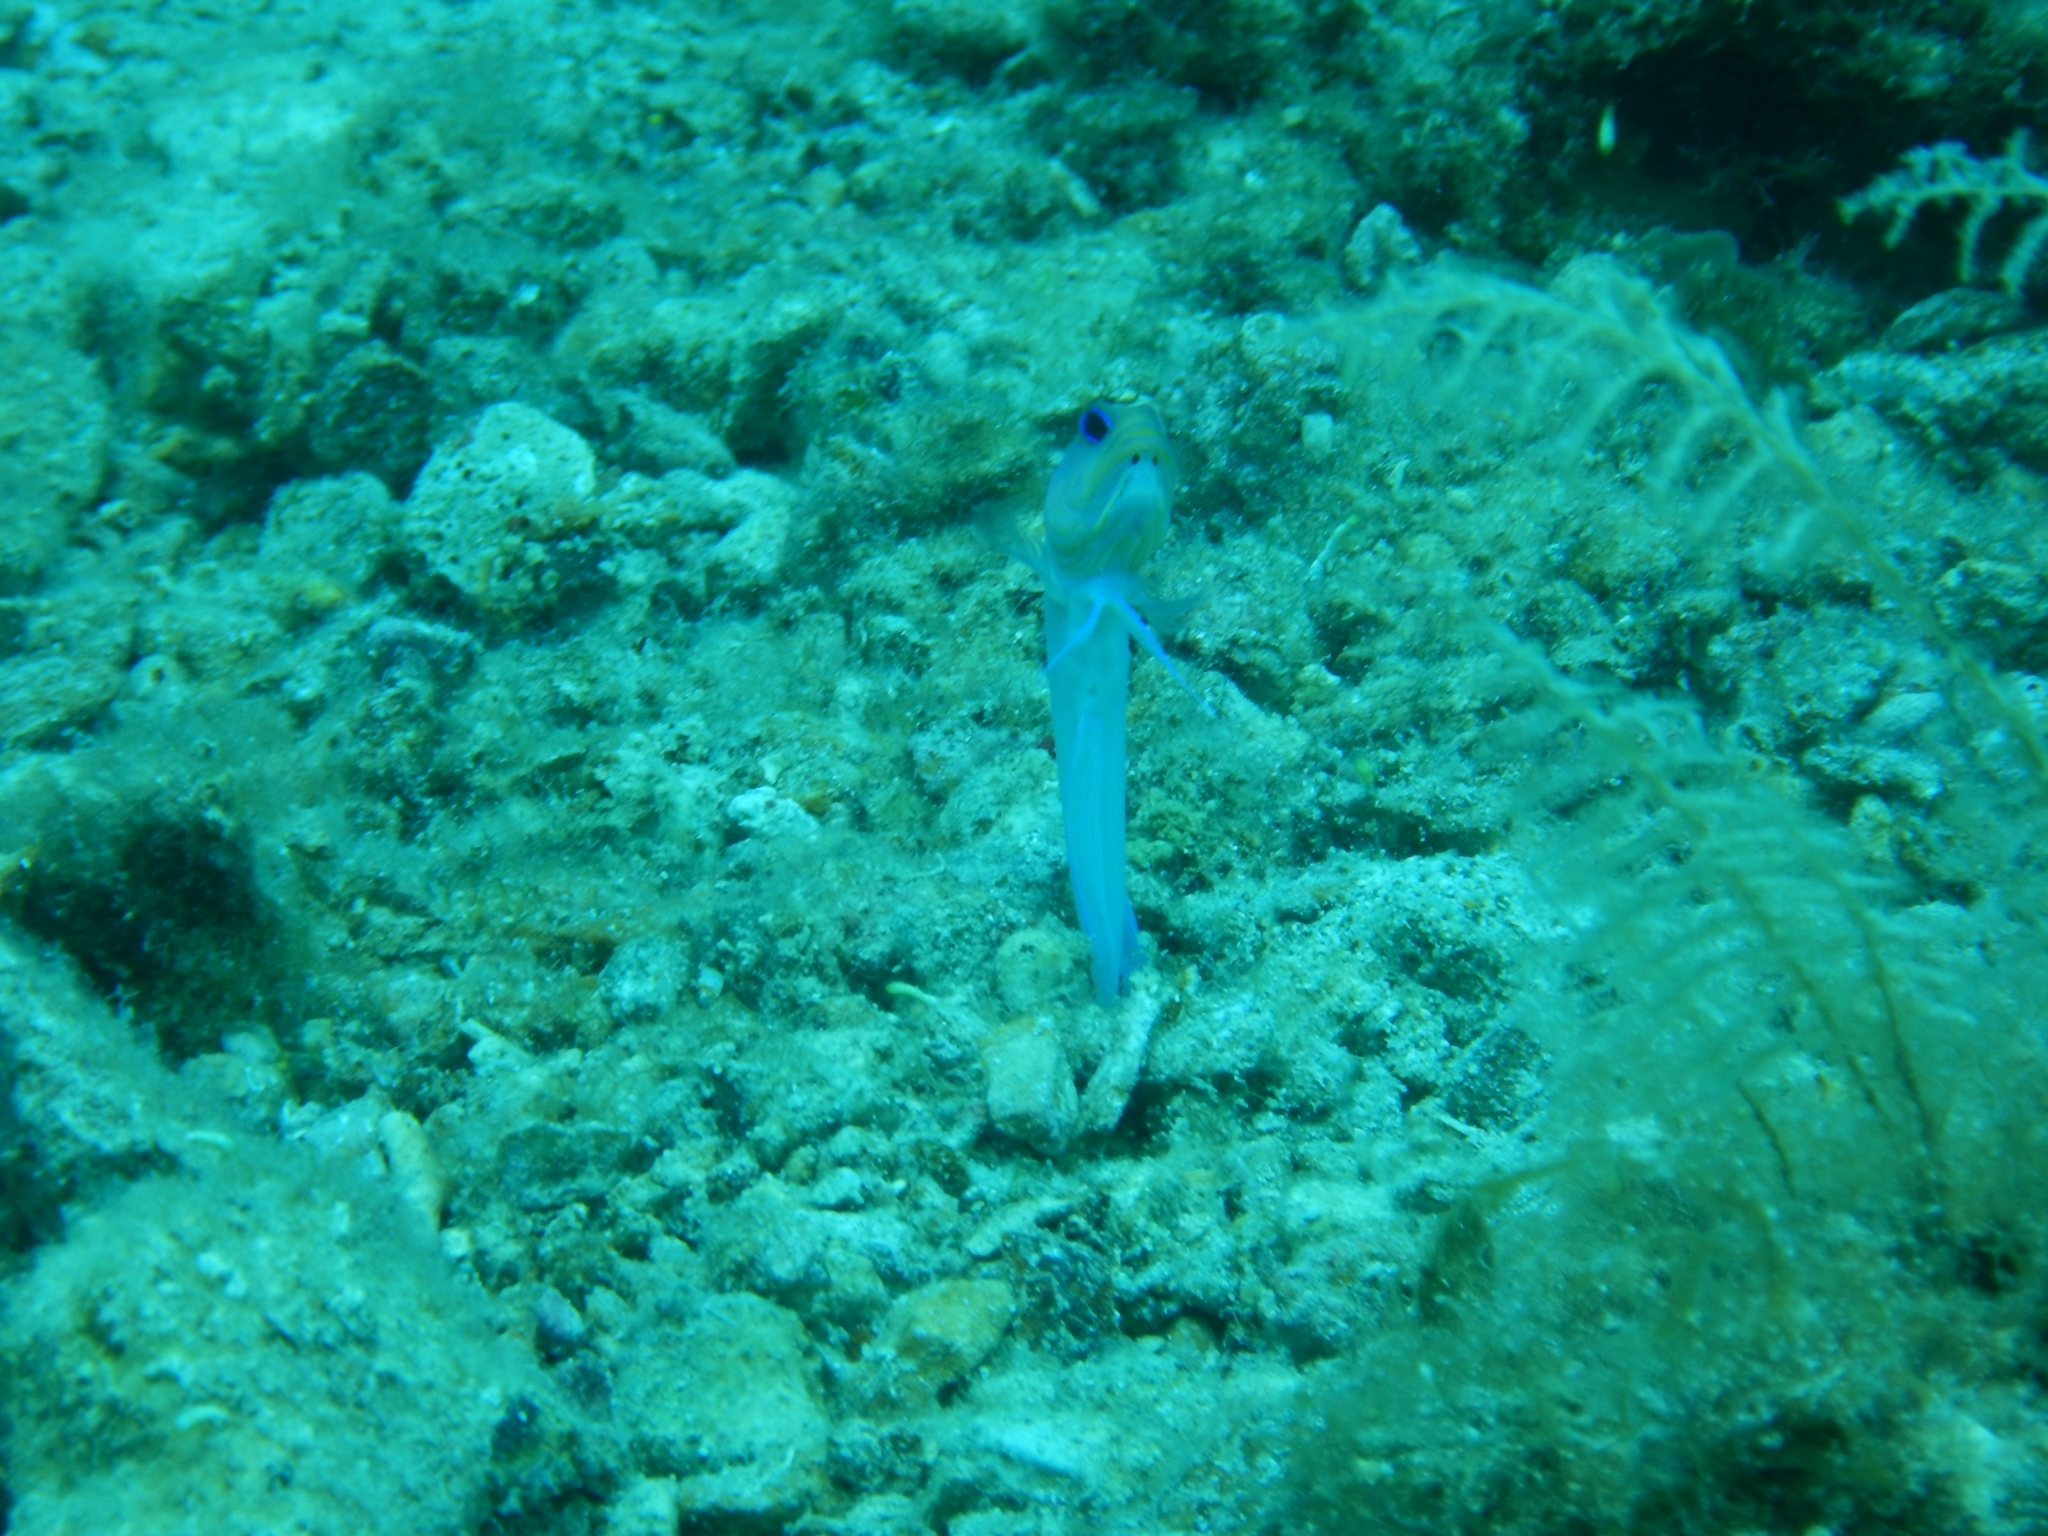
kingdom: Animalia
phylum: Chordata
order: Perciformes
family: Opistognathidae
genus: Opistognathus
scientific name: Opistognathus aurifrons
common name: Yellowhead jawfish
